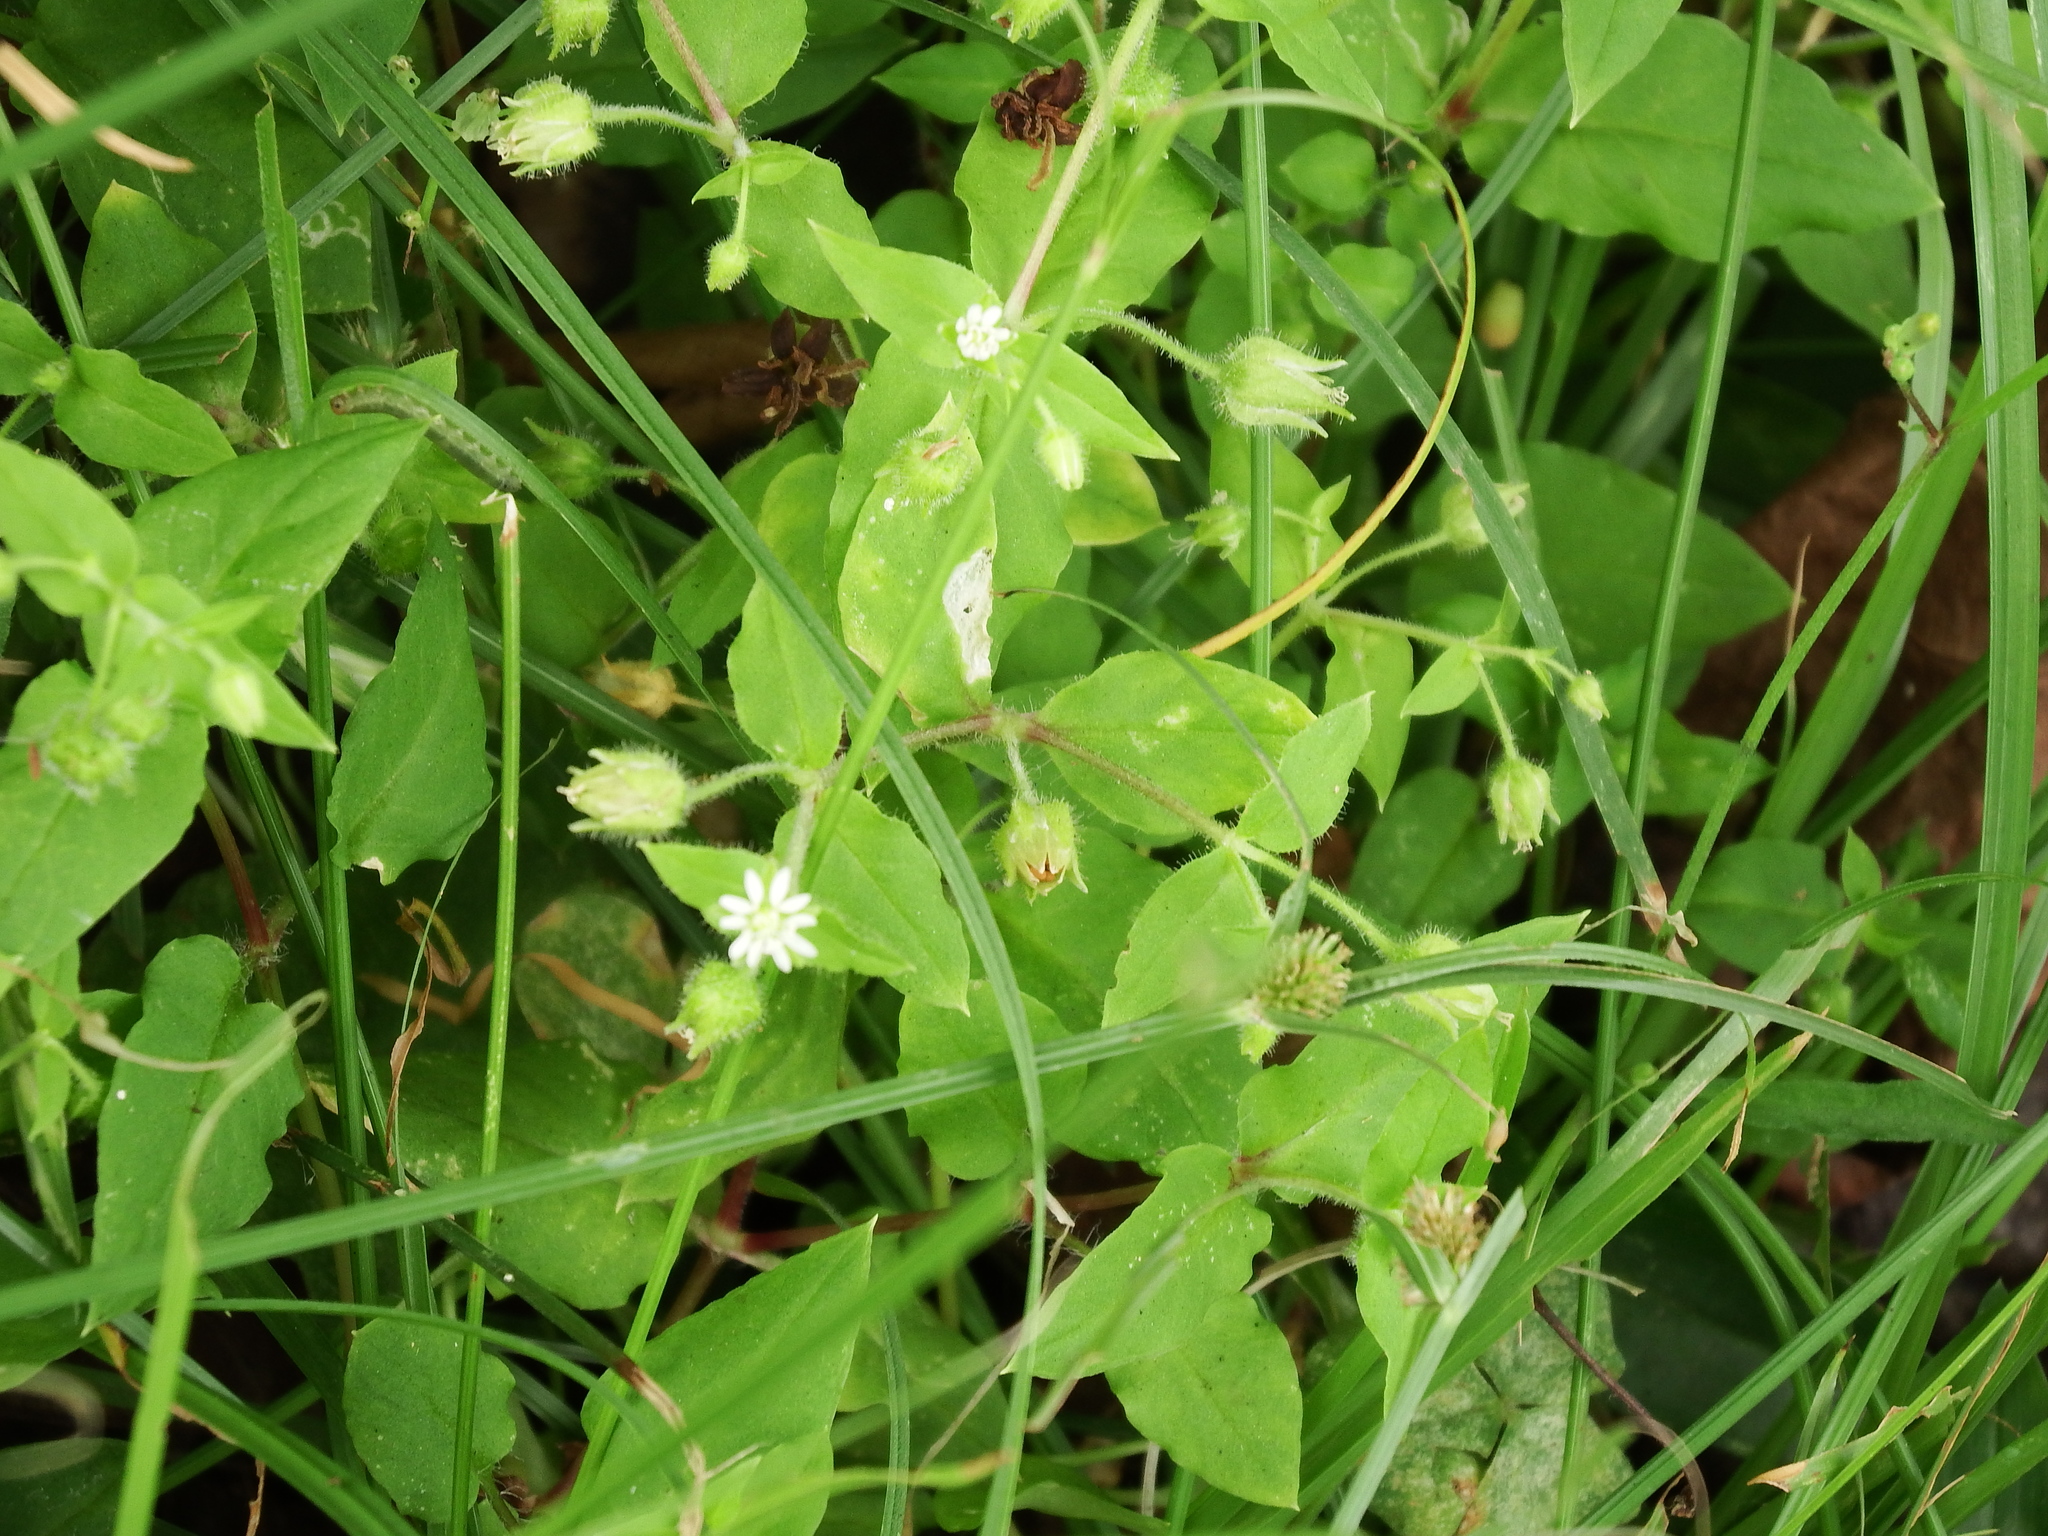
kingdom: Plantae
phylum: Tracheophyta
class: Magnoliopsida
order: Caryophyllales
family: Caryophyllaceae
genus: Stellaria
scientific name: Stellaria aquatica
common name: Water chickweed
